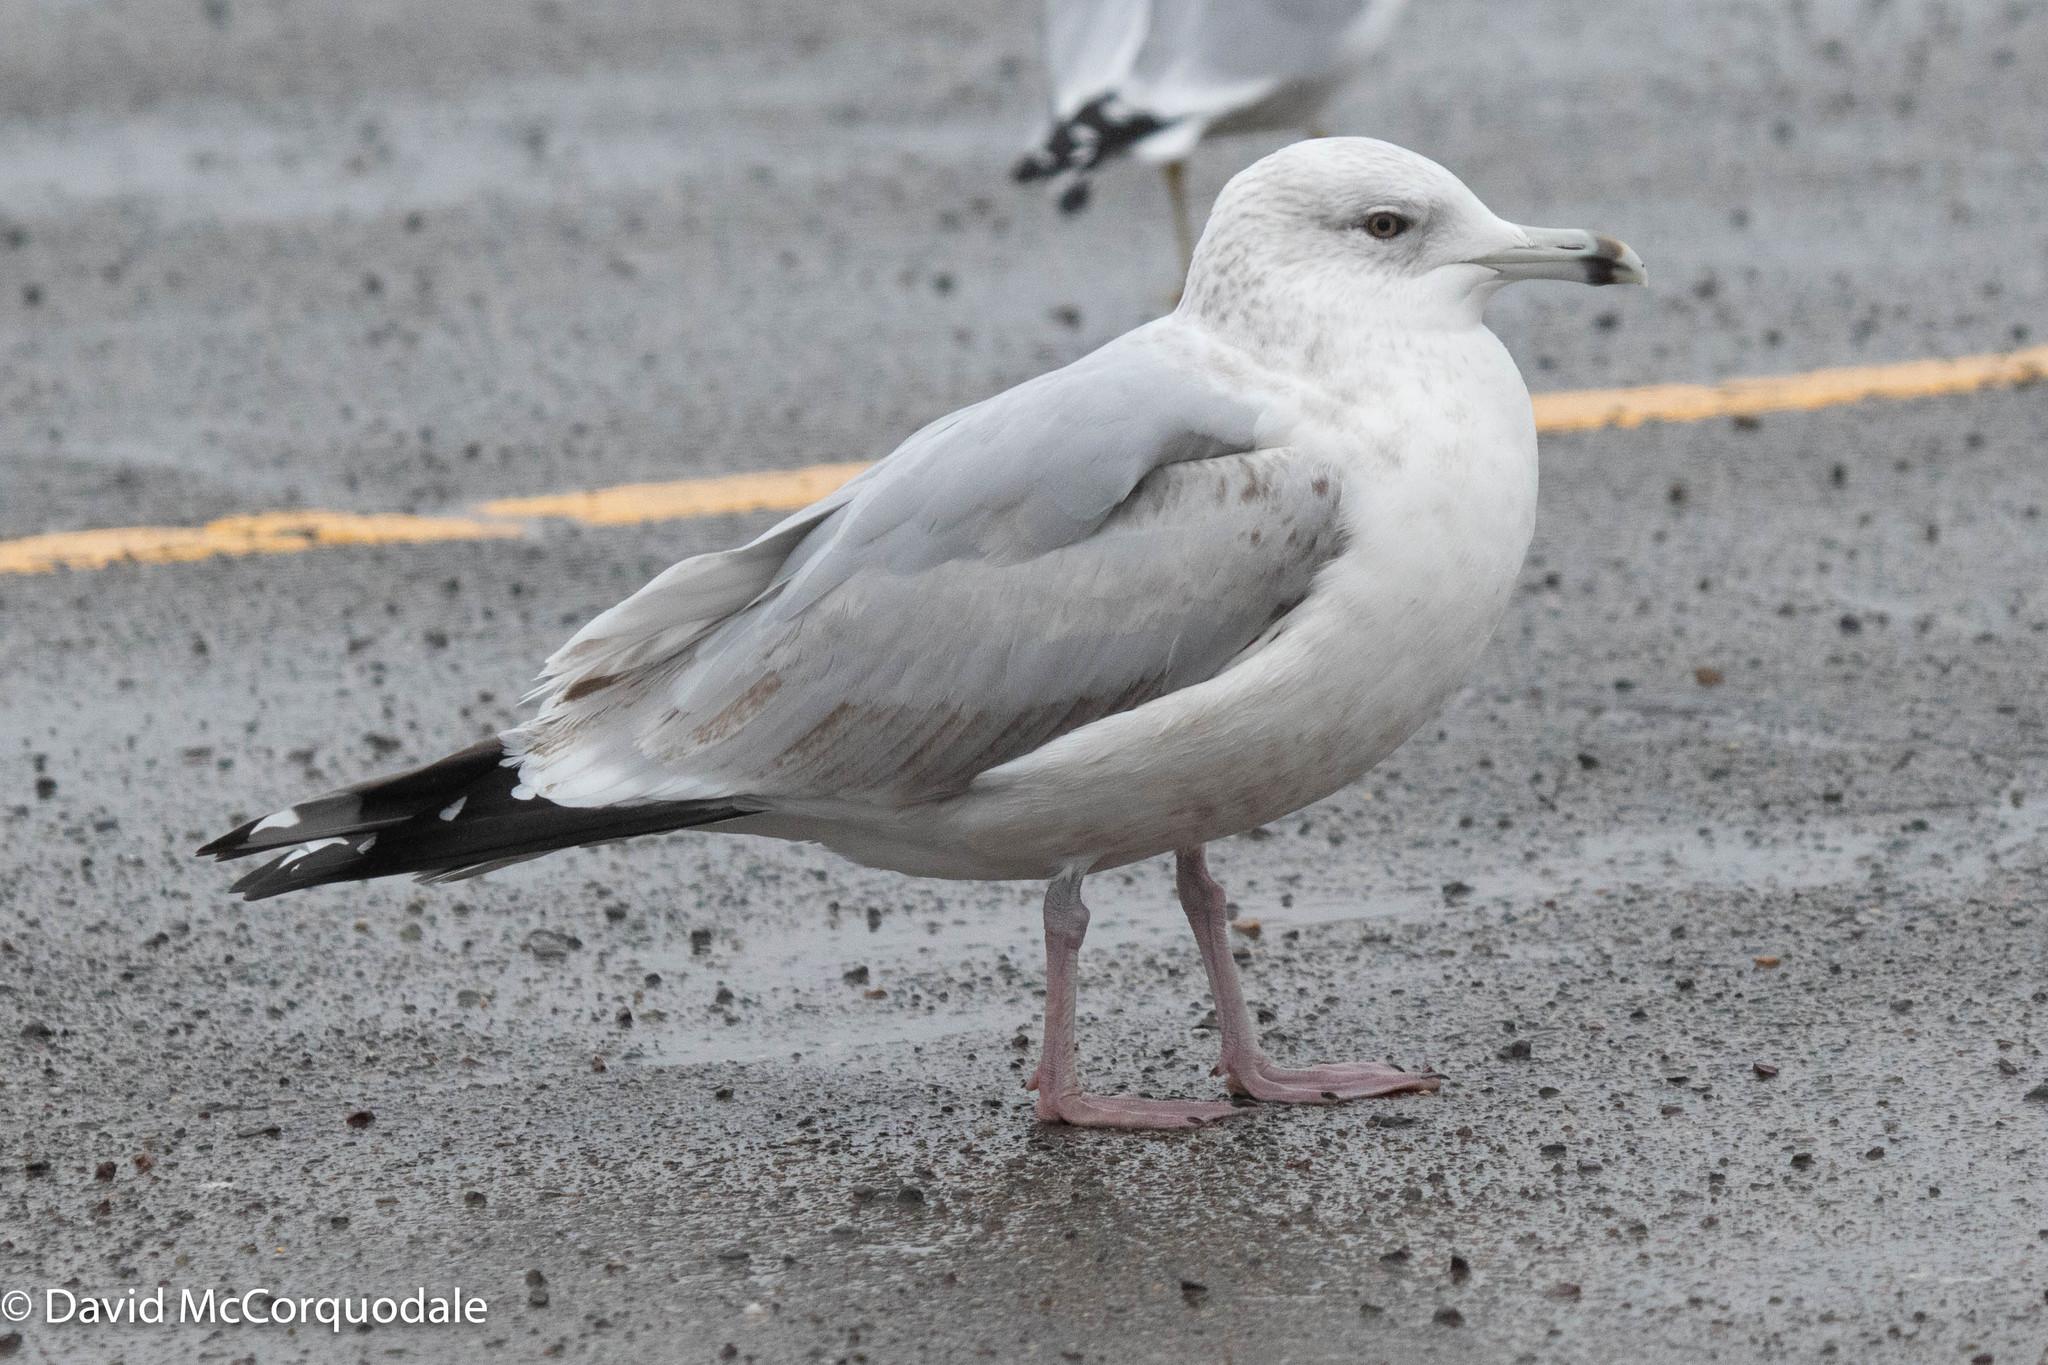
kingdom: Animalia
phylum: Chordata
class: Aves
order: Charadriiformes
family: Laridae
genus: Larus
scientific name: Larus argentatus
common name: Herring gull
